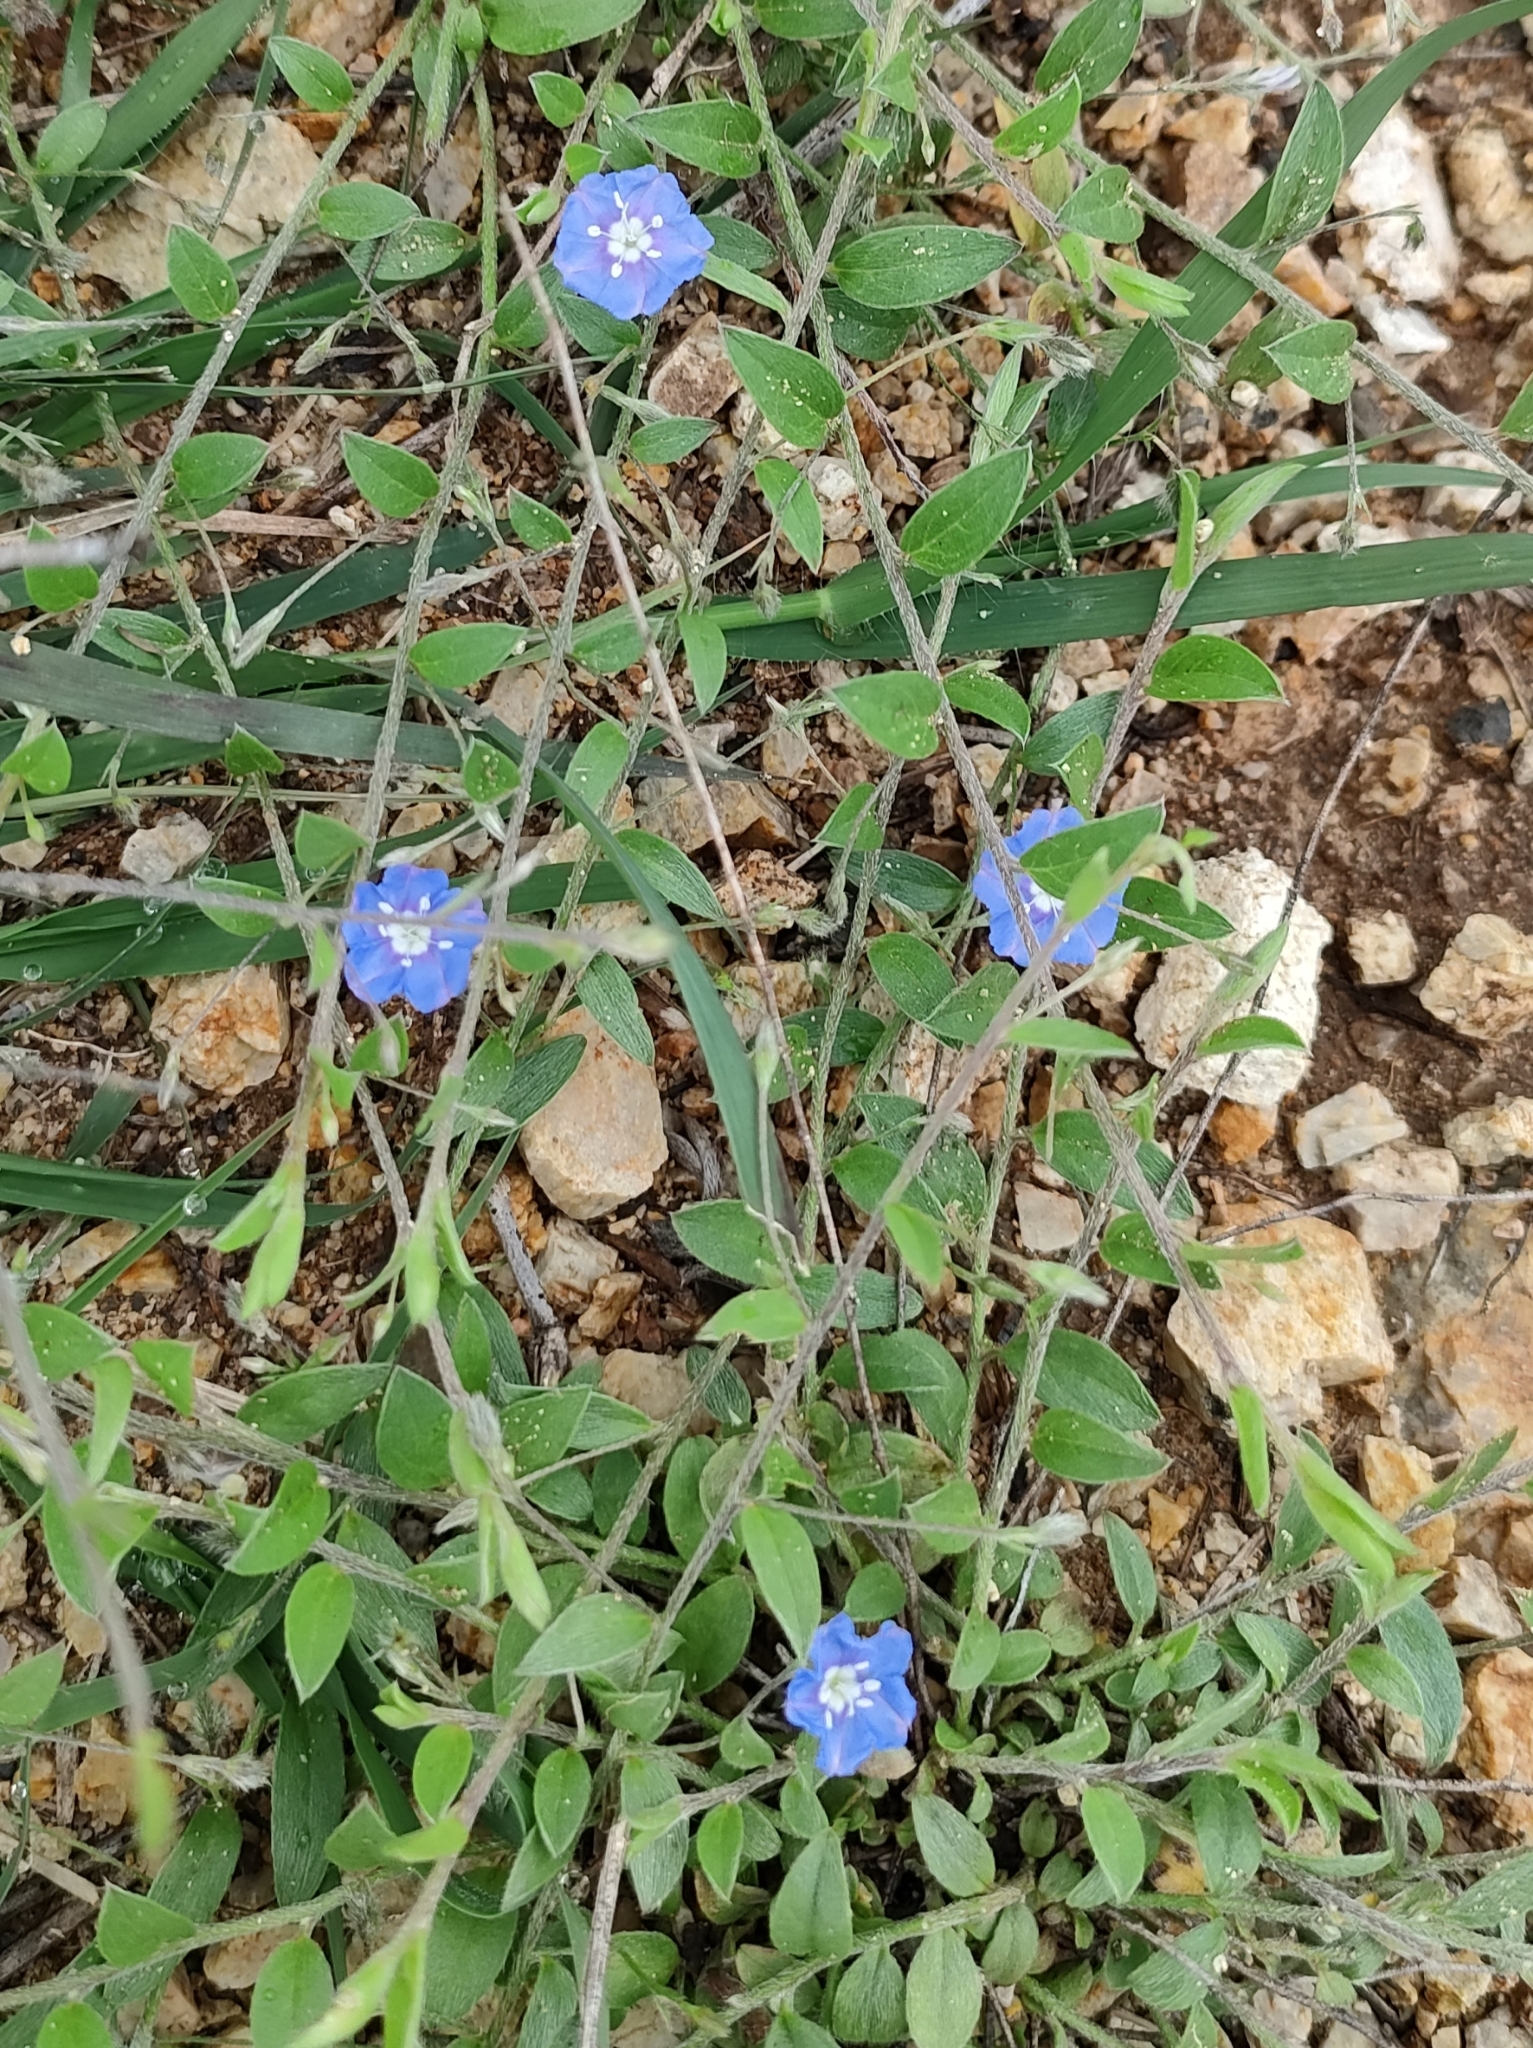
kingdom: Plantae
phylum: Tracheophyta
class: Magnoliopsida
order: Solanales
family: Convolvulaceae
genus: Evolvulus
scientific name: Evolvulus alsinoides
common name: Slender dwarf morning-glory
